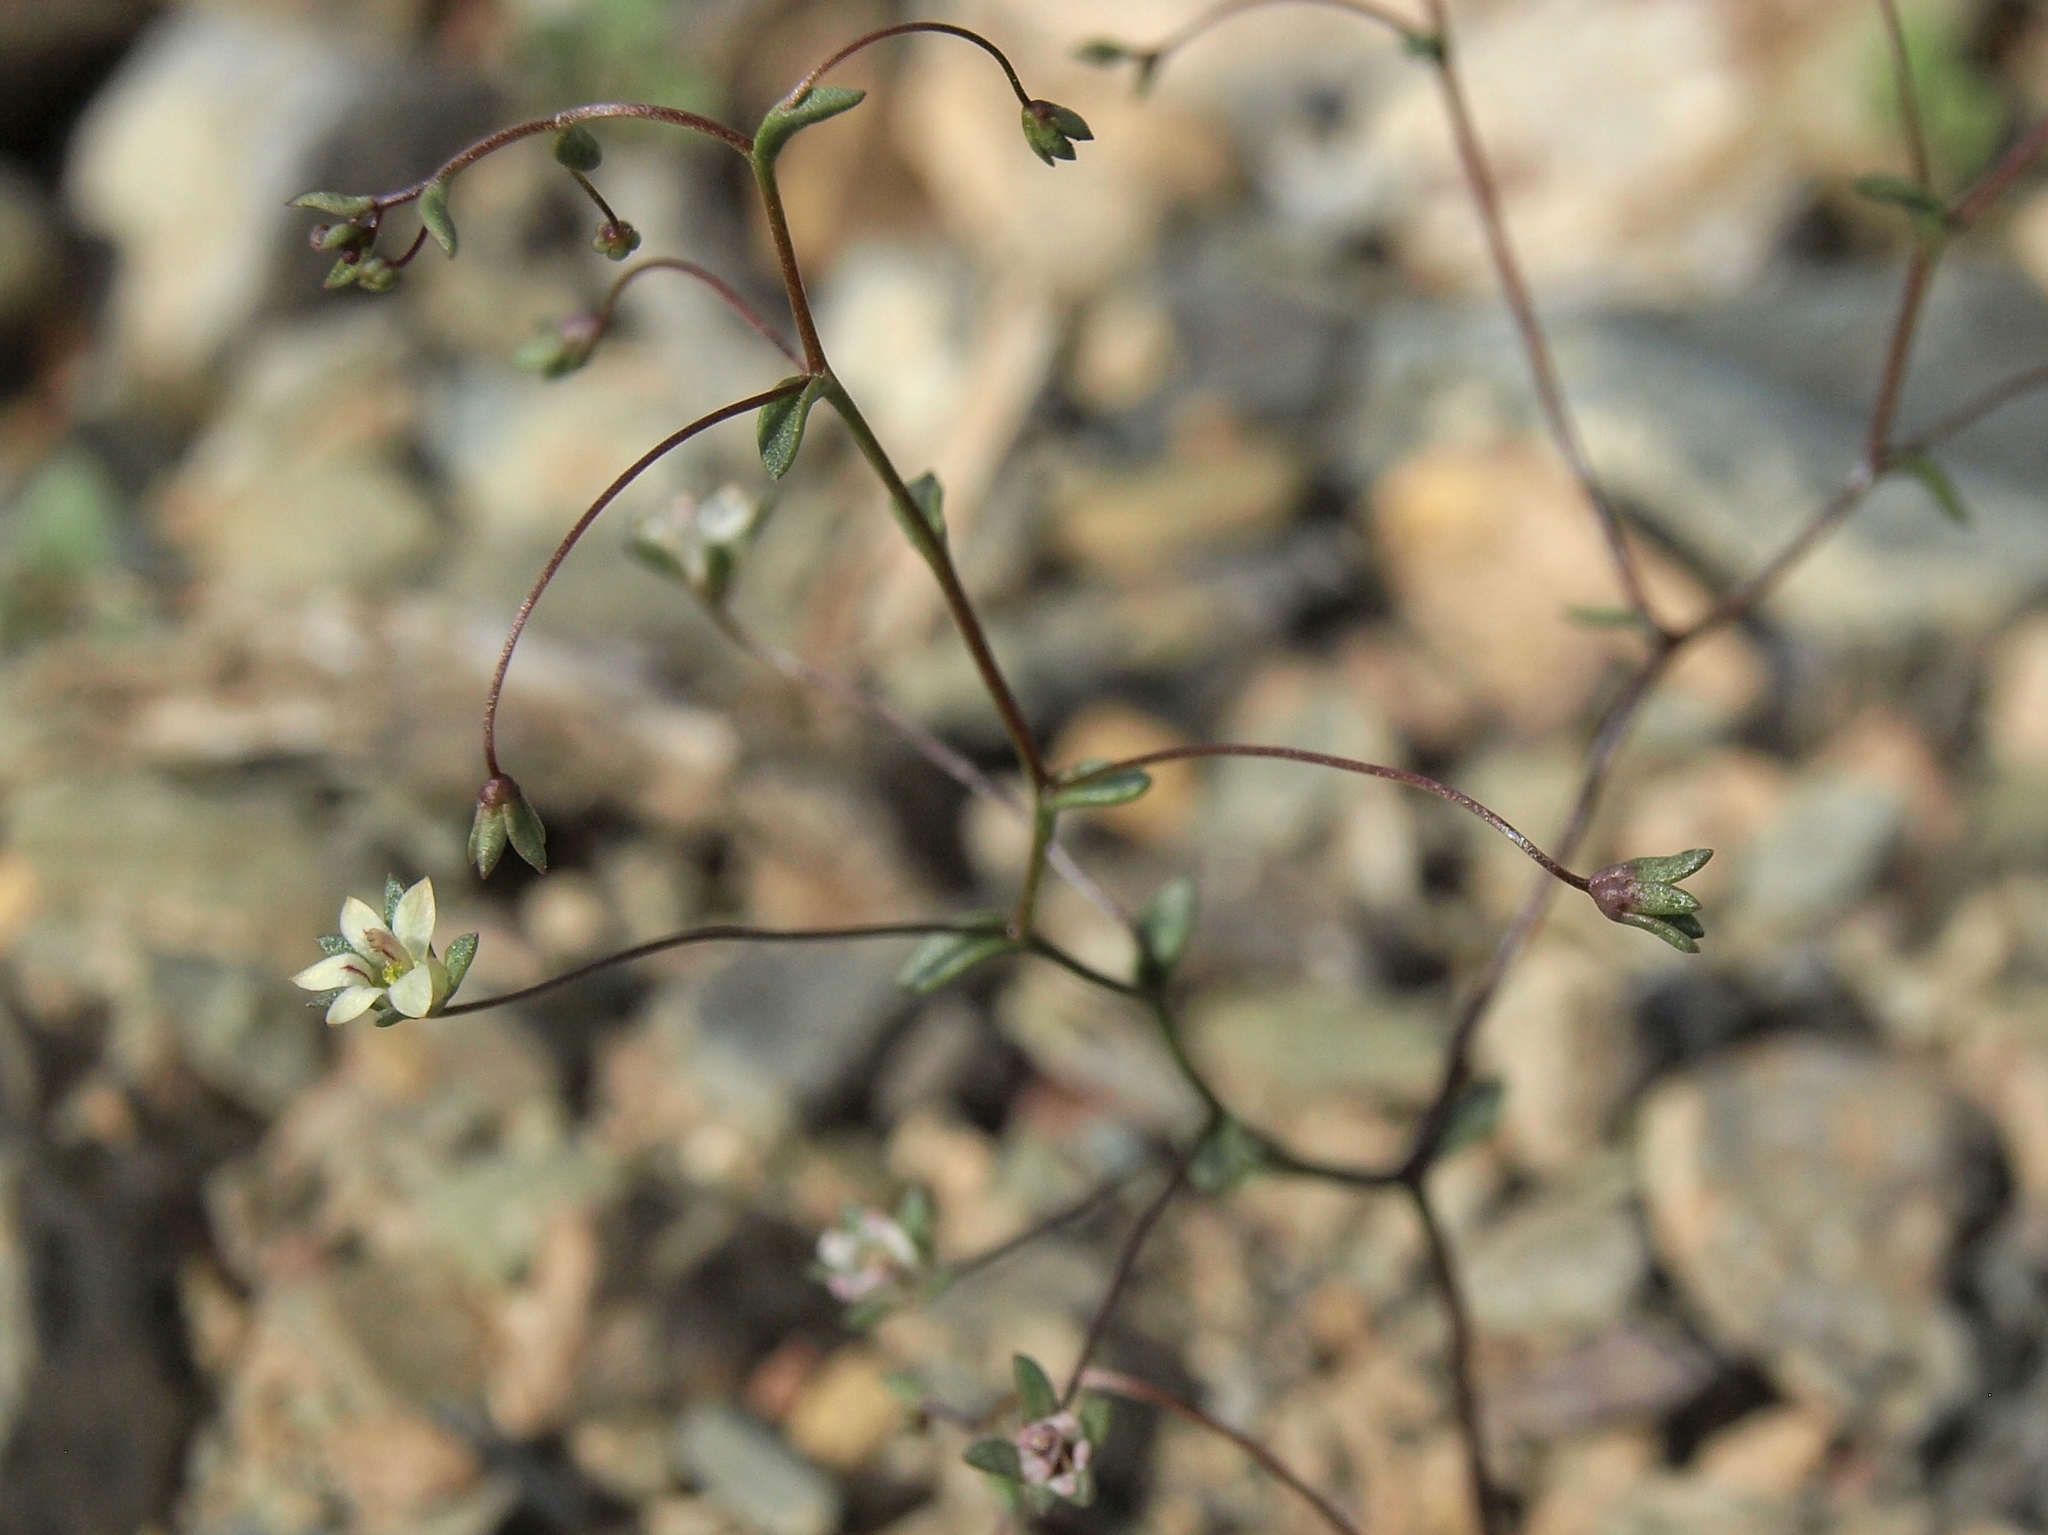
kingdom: Plantae
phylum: Tracheophyta
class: Magnoliopsida
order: Asterales
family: Campanulaceae
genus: Nemacladus
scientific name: Nemacladus inyoensis
